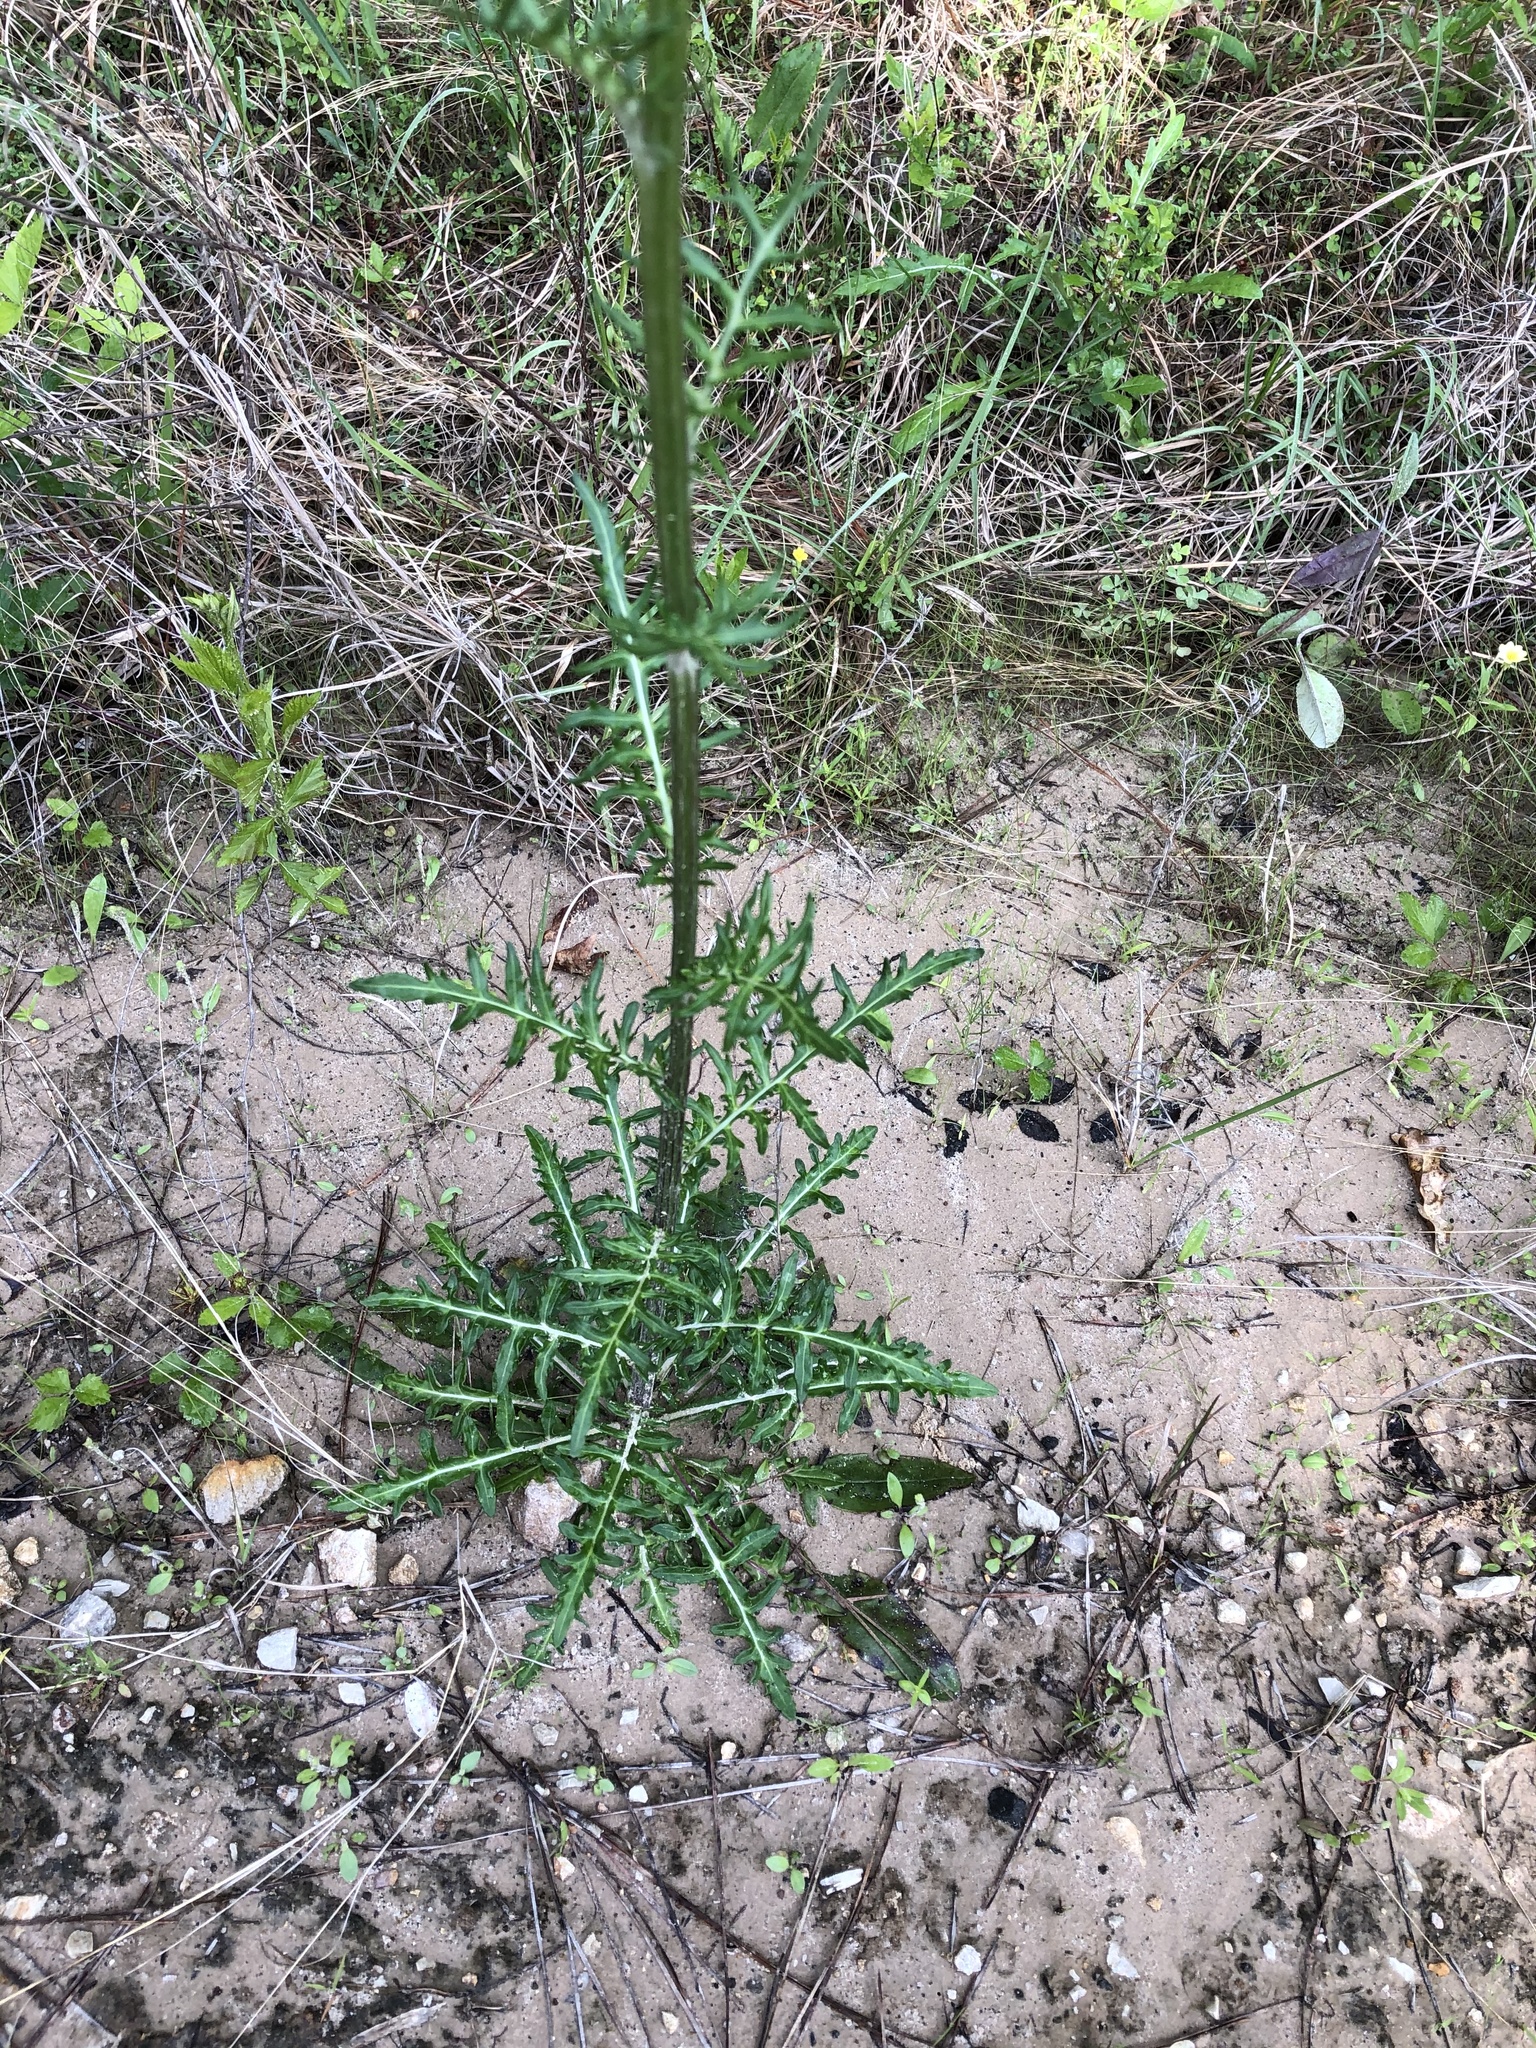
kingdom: Plantae
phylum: Tracheophyta
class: Magnoliopsida
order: Asterales
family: Asteraceae
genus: Hymenopappus
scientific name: Hymenopappus artemisiifolius
